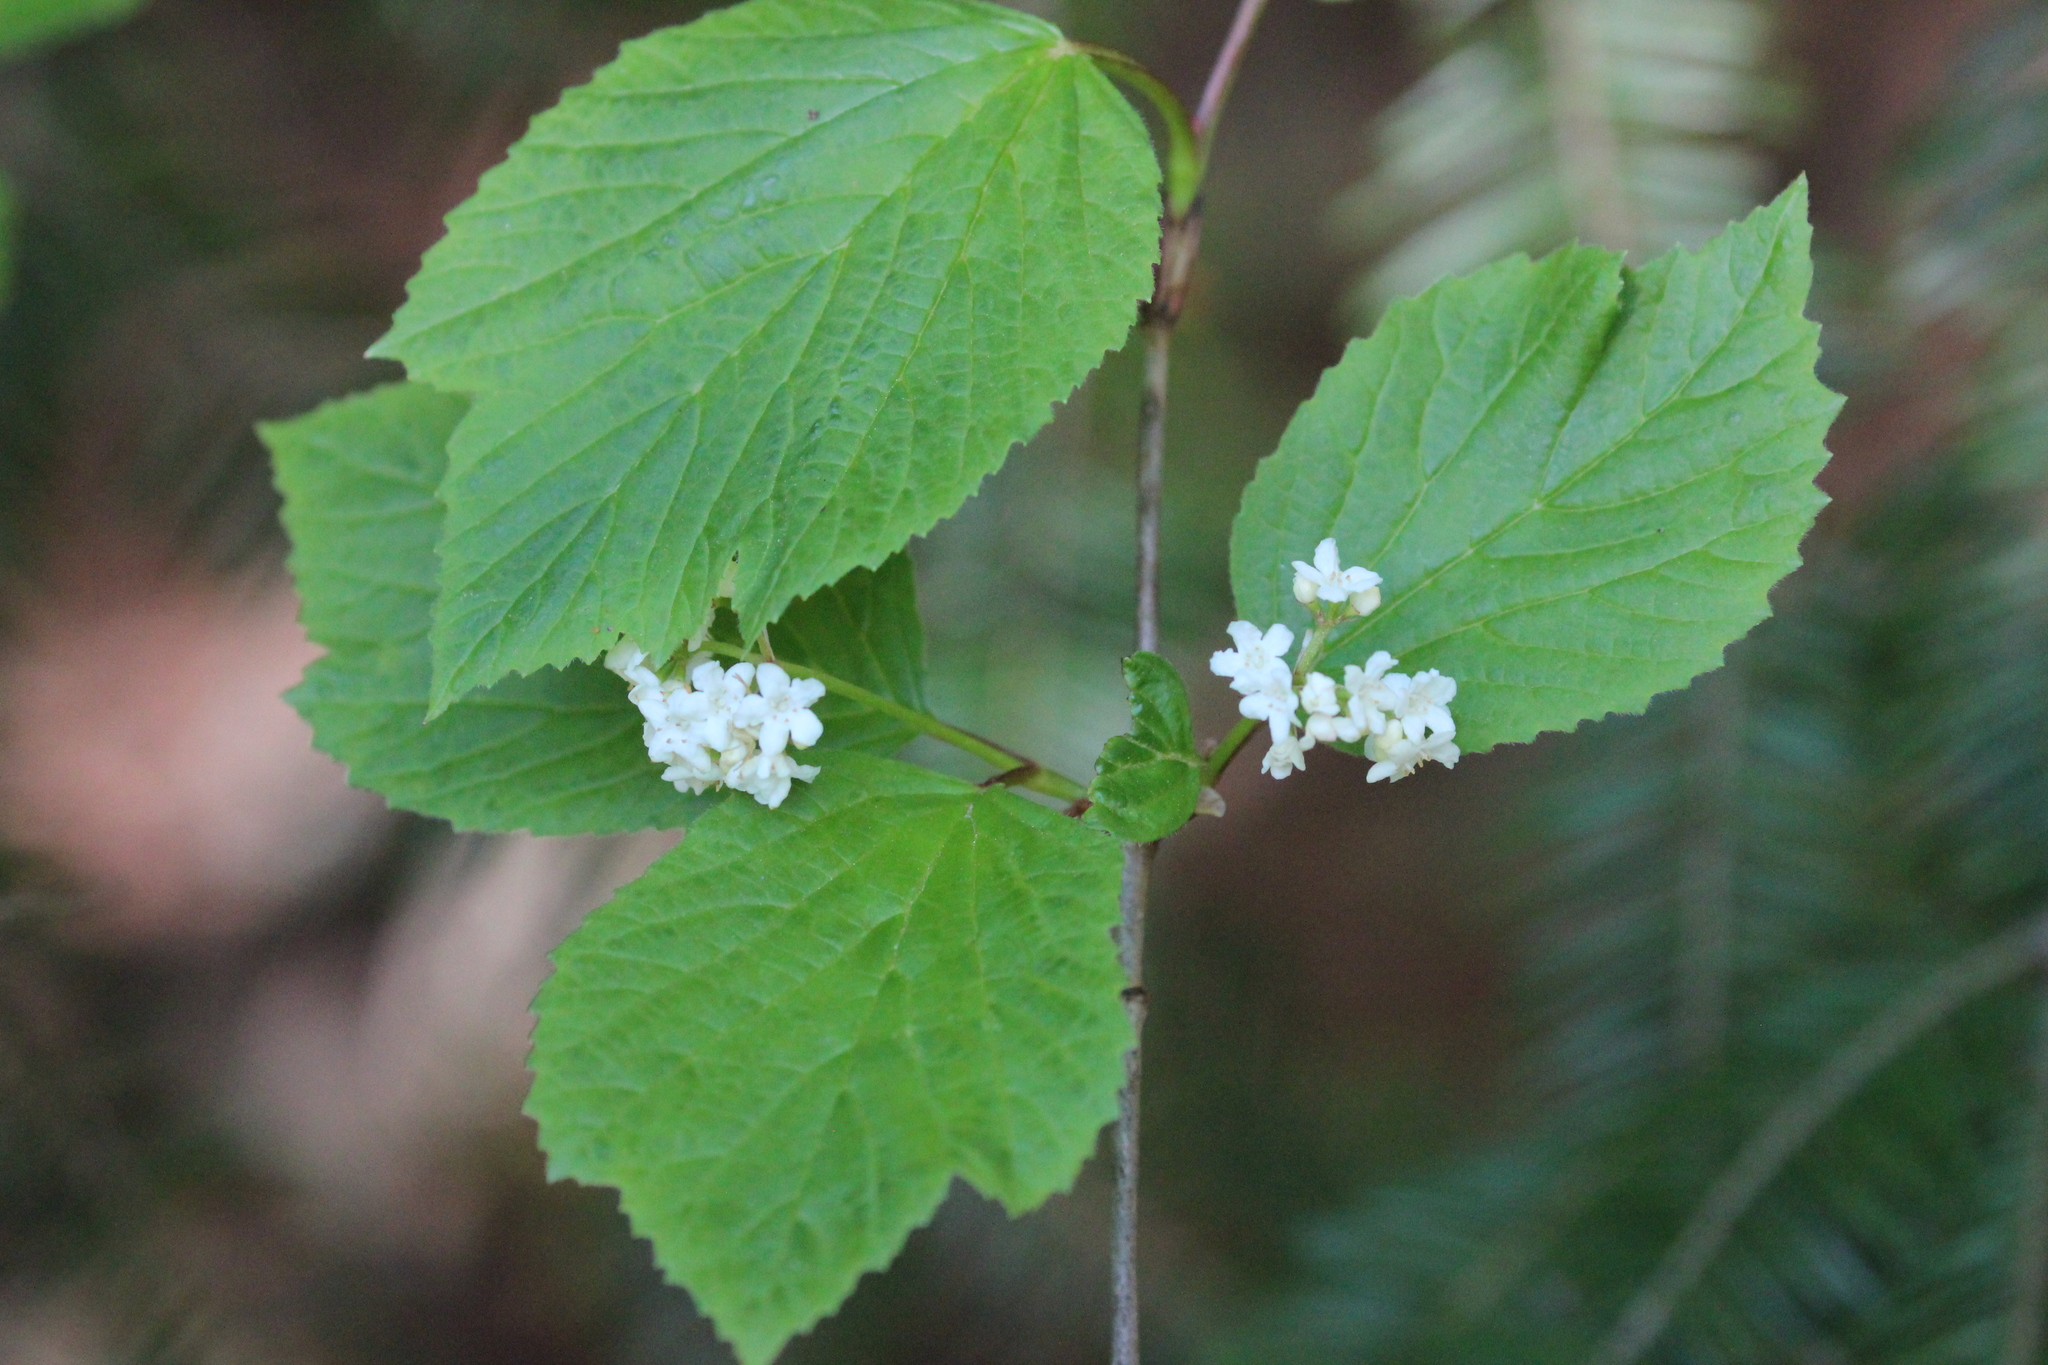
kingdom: Plantae
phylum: Tracheophyta
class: Magnoliopsida
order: Dipsacales
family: Viburnaceae
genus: Viburnum
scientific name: Viburnum edule
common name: Mooseberry
